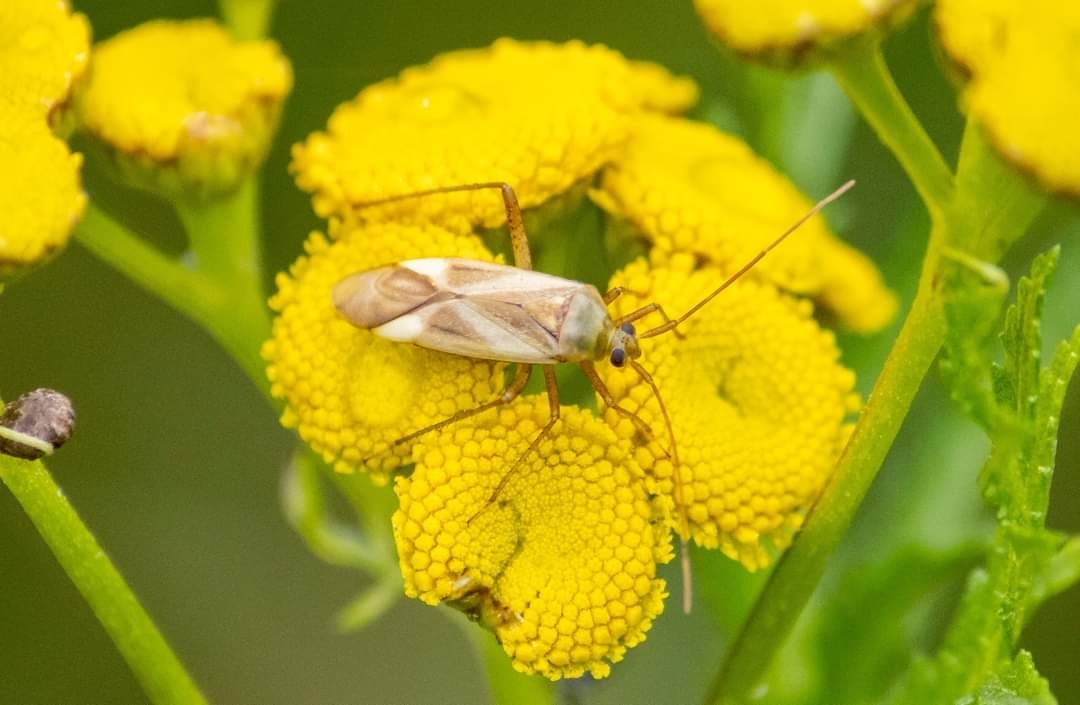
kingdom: Animalia
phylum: Arthropoda
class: Insecta
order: Hemiptera
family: Miridae
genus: Adelphocoris
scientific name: Adelphocoris lineolatus
